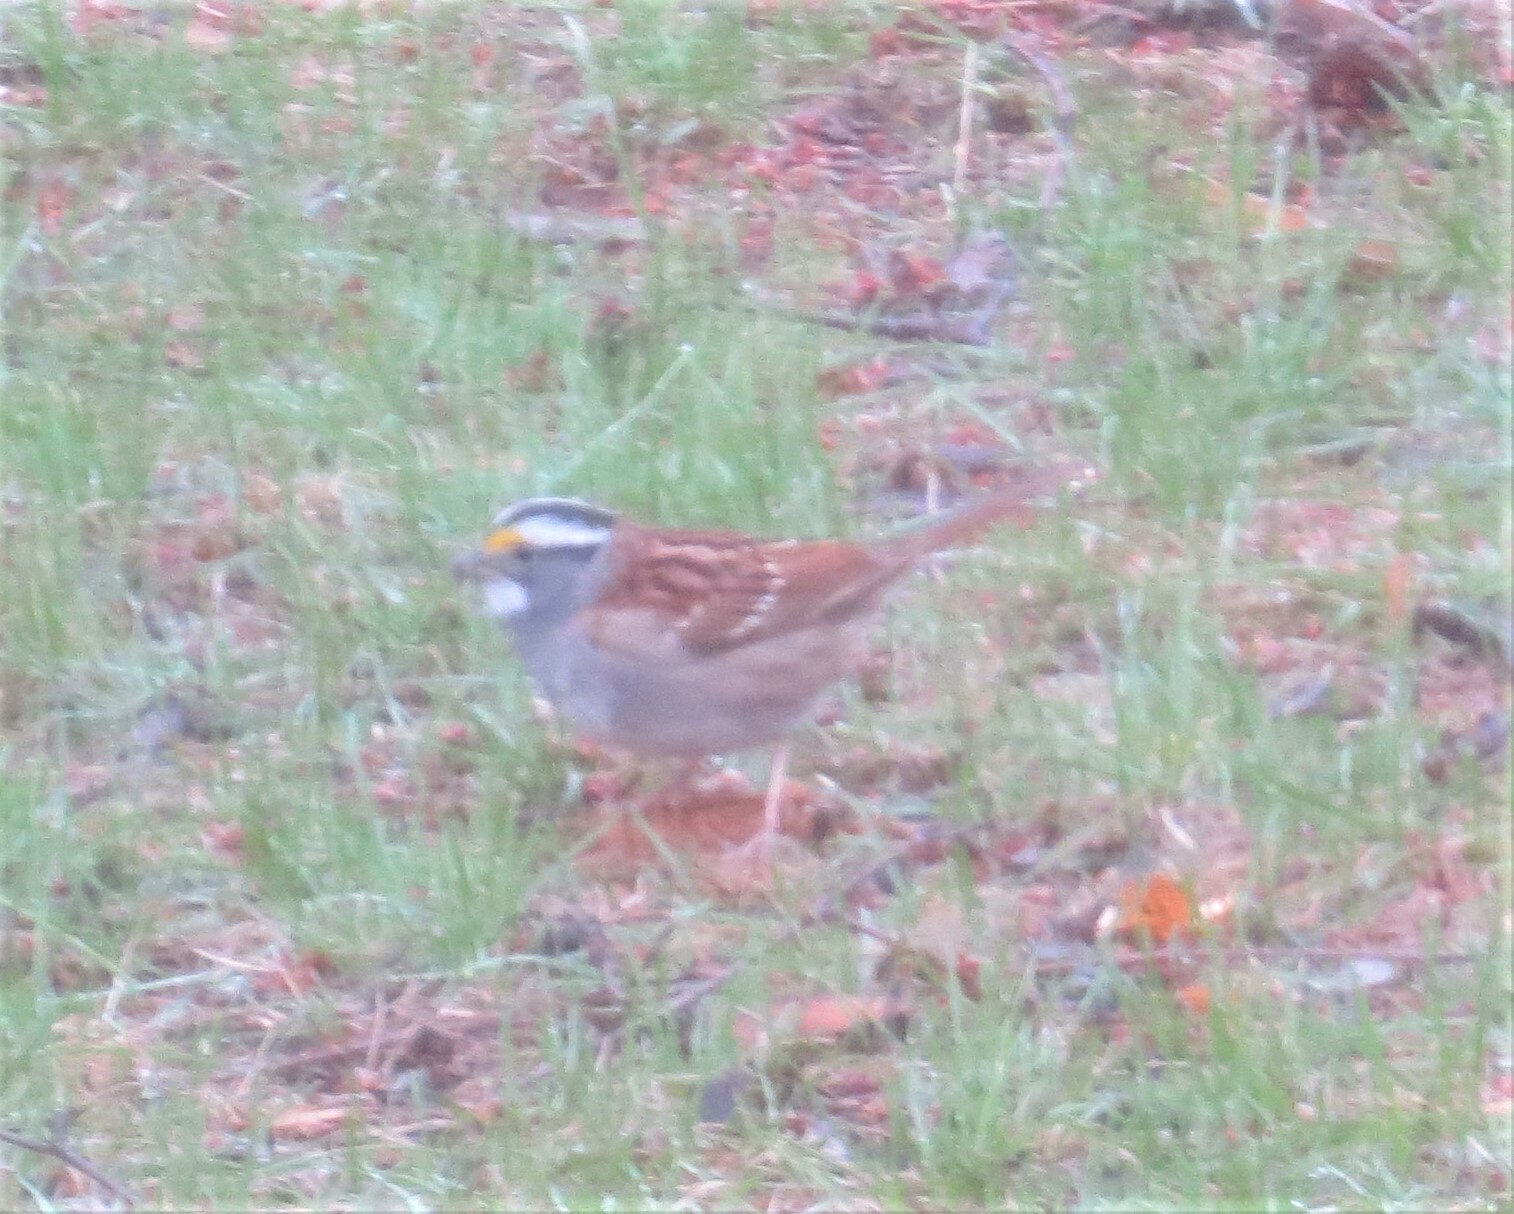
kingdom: Animalia
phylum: Chordata
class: Aves
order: Passeriformes
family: Passerellidae
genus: Zonotrichia
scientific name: Zonotrichia albicollis
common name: White-throated sparrow
